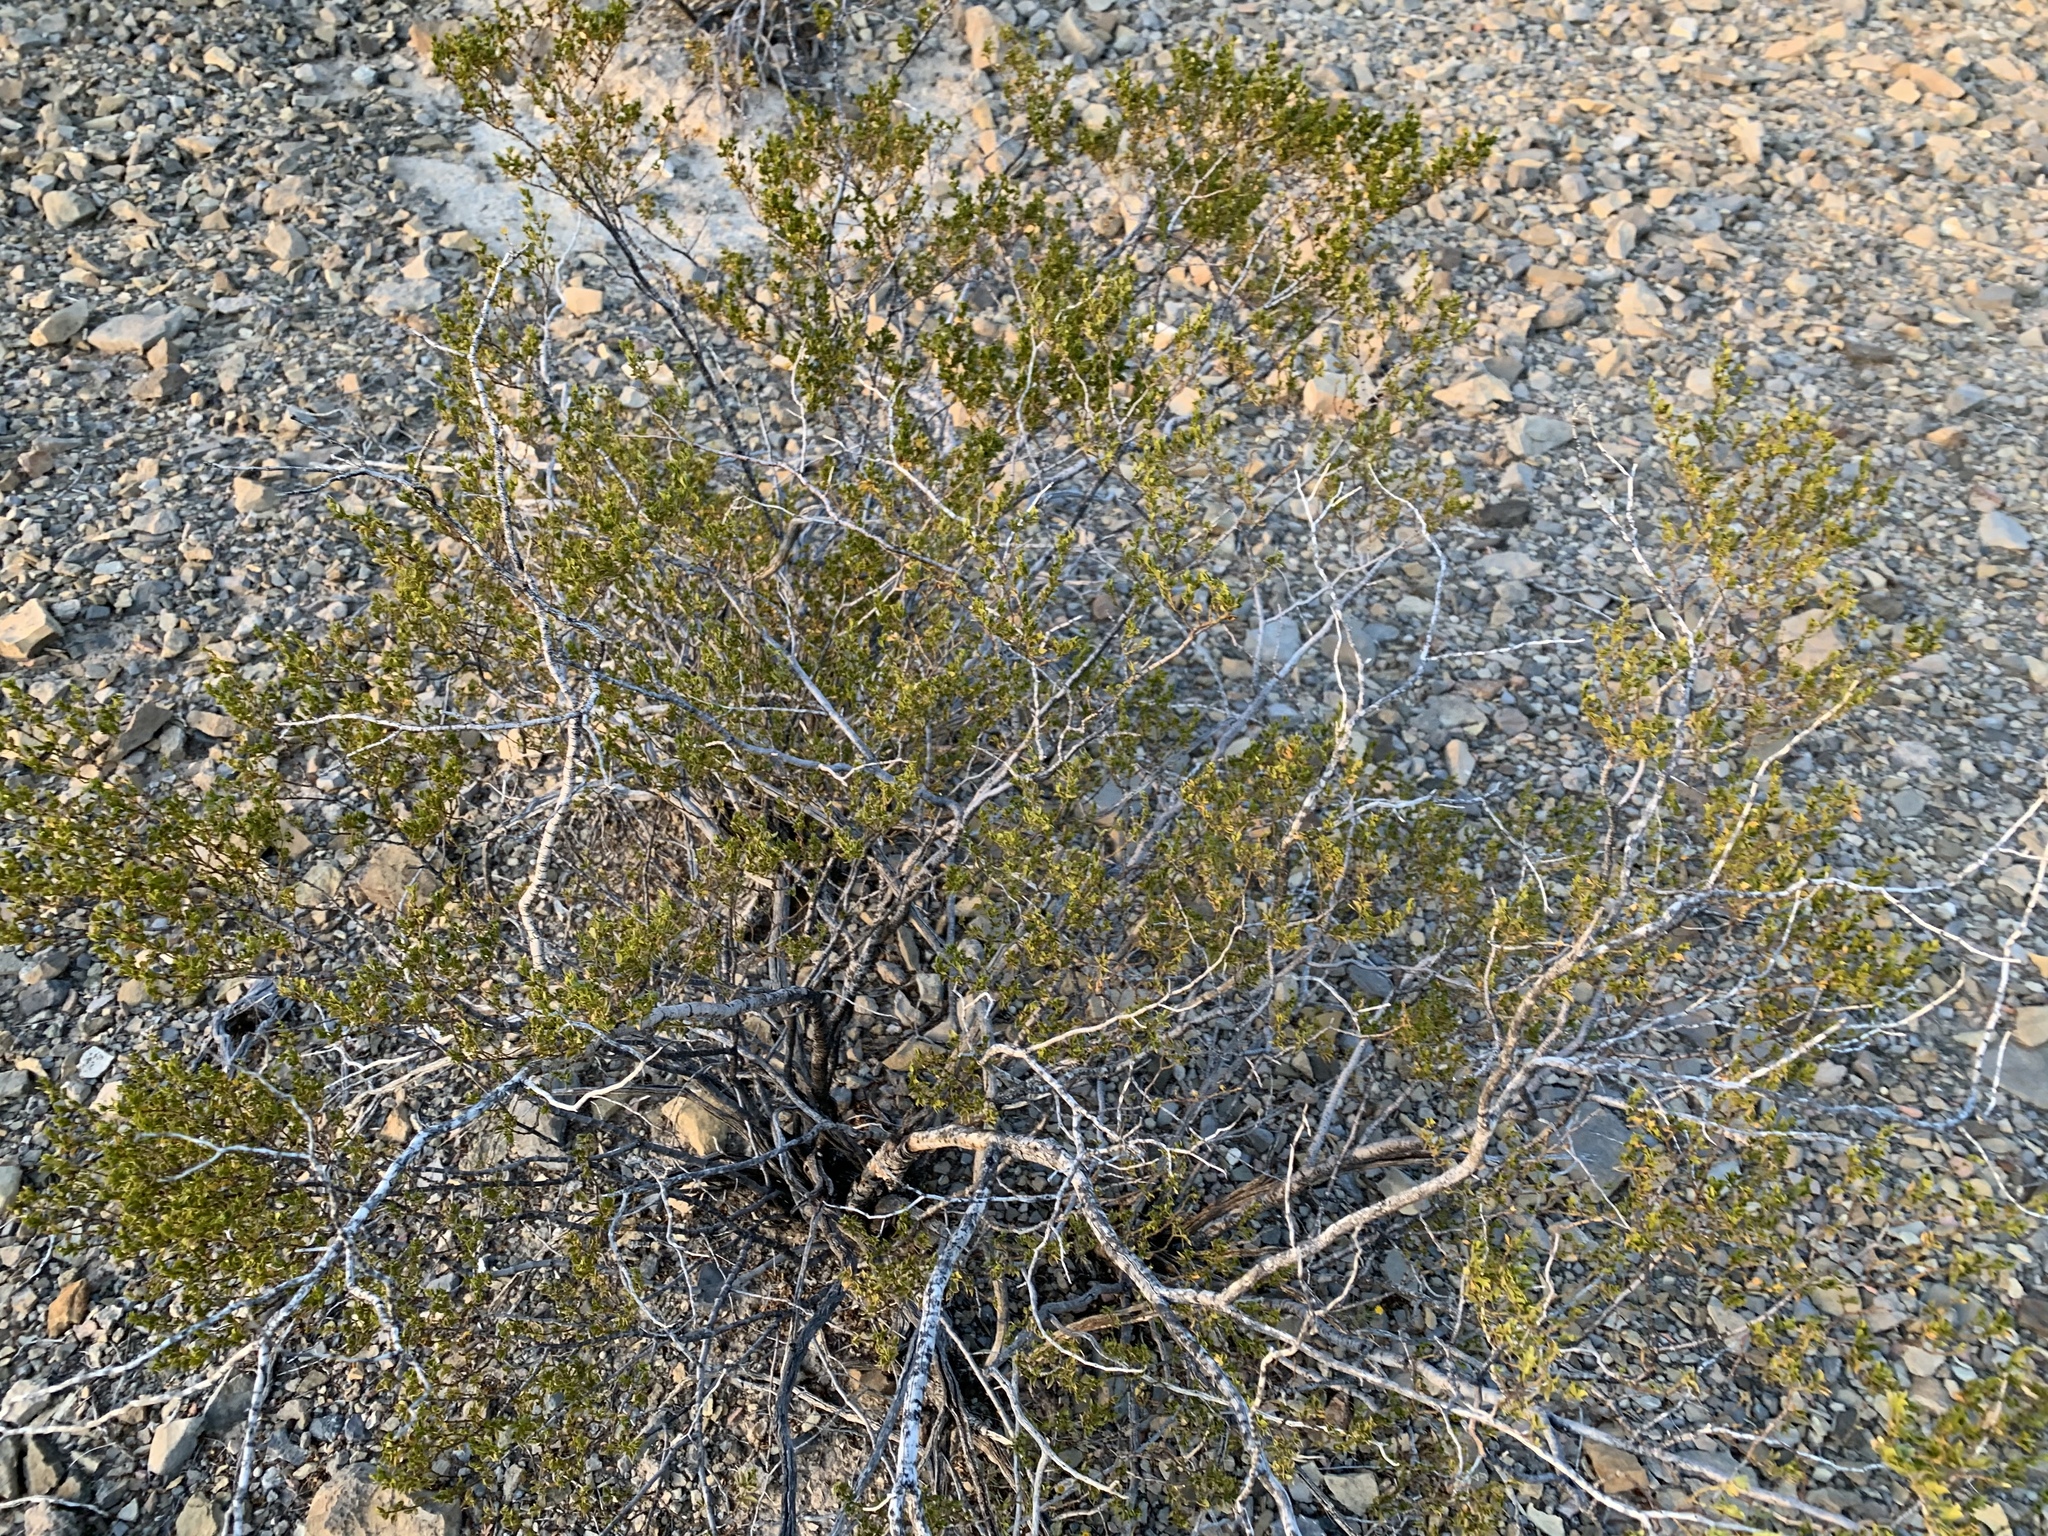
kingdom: Plantae
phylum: Tracheophyta
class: Magnoliopsida
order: Zygophyllales
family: Zygophyllaceae
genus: Larrea
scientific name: Larrea tridentata
